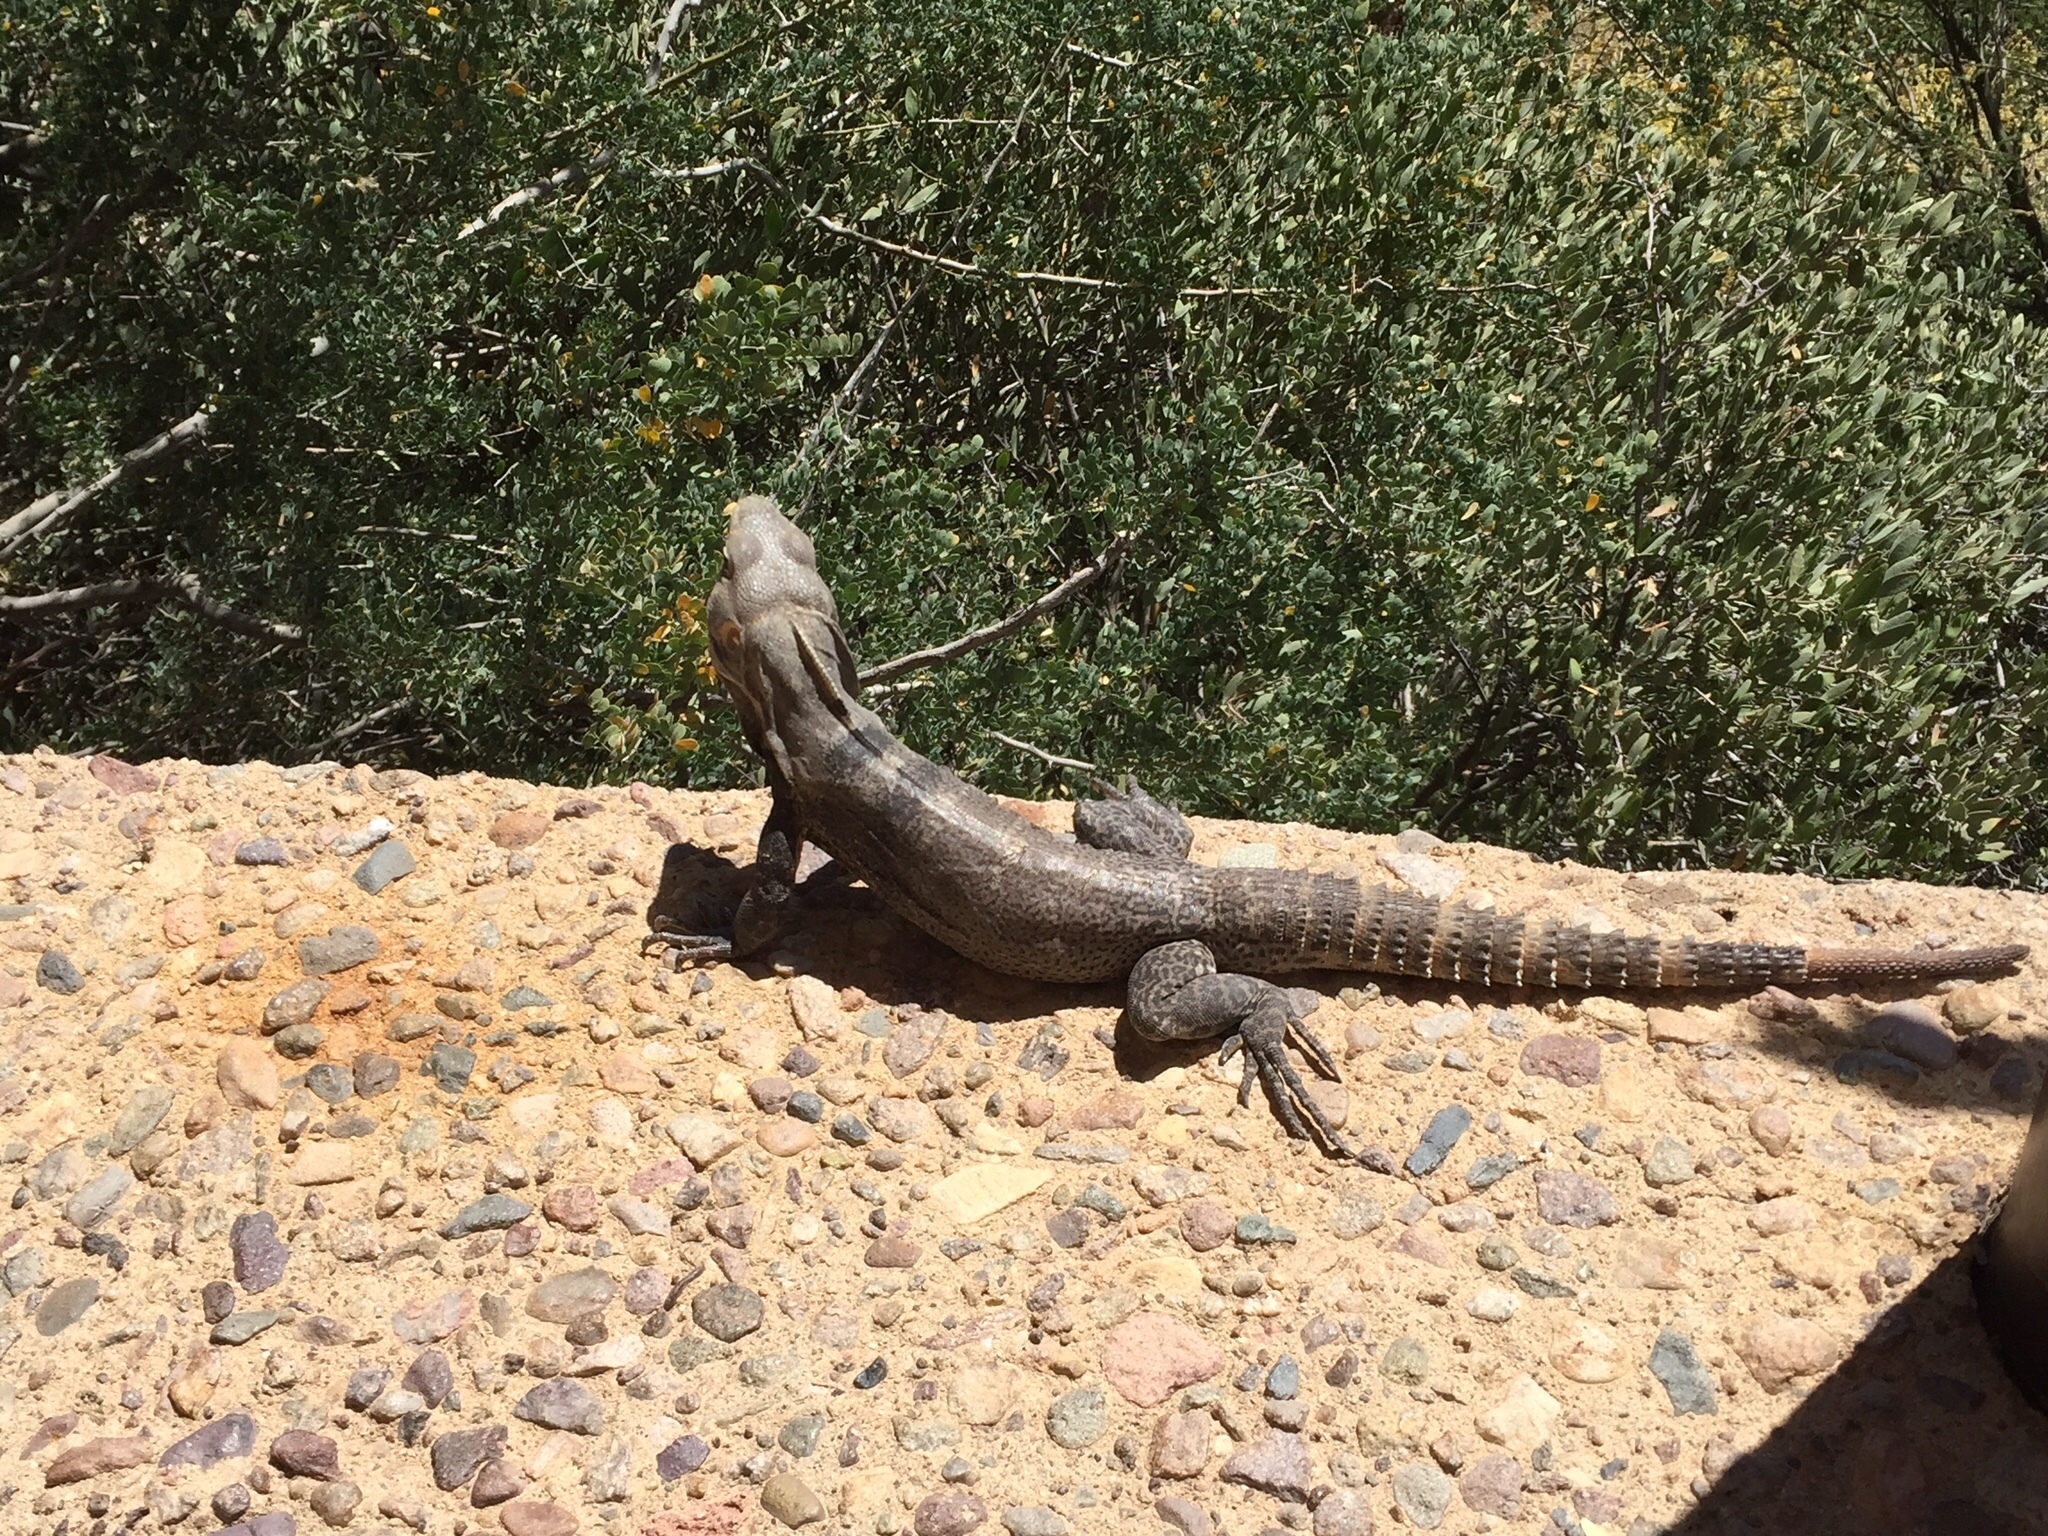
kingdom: Animalia
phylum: Chordata
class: Squamata
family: Iguanidae
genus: Ctenosaura
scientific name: Ctenosaura
